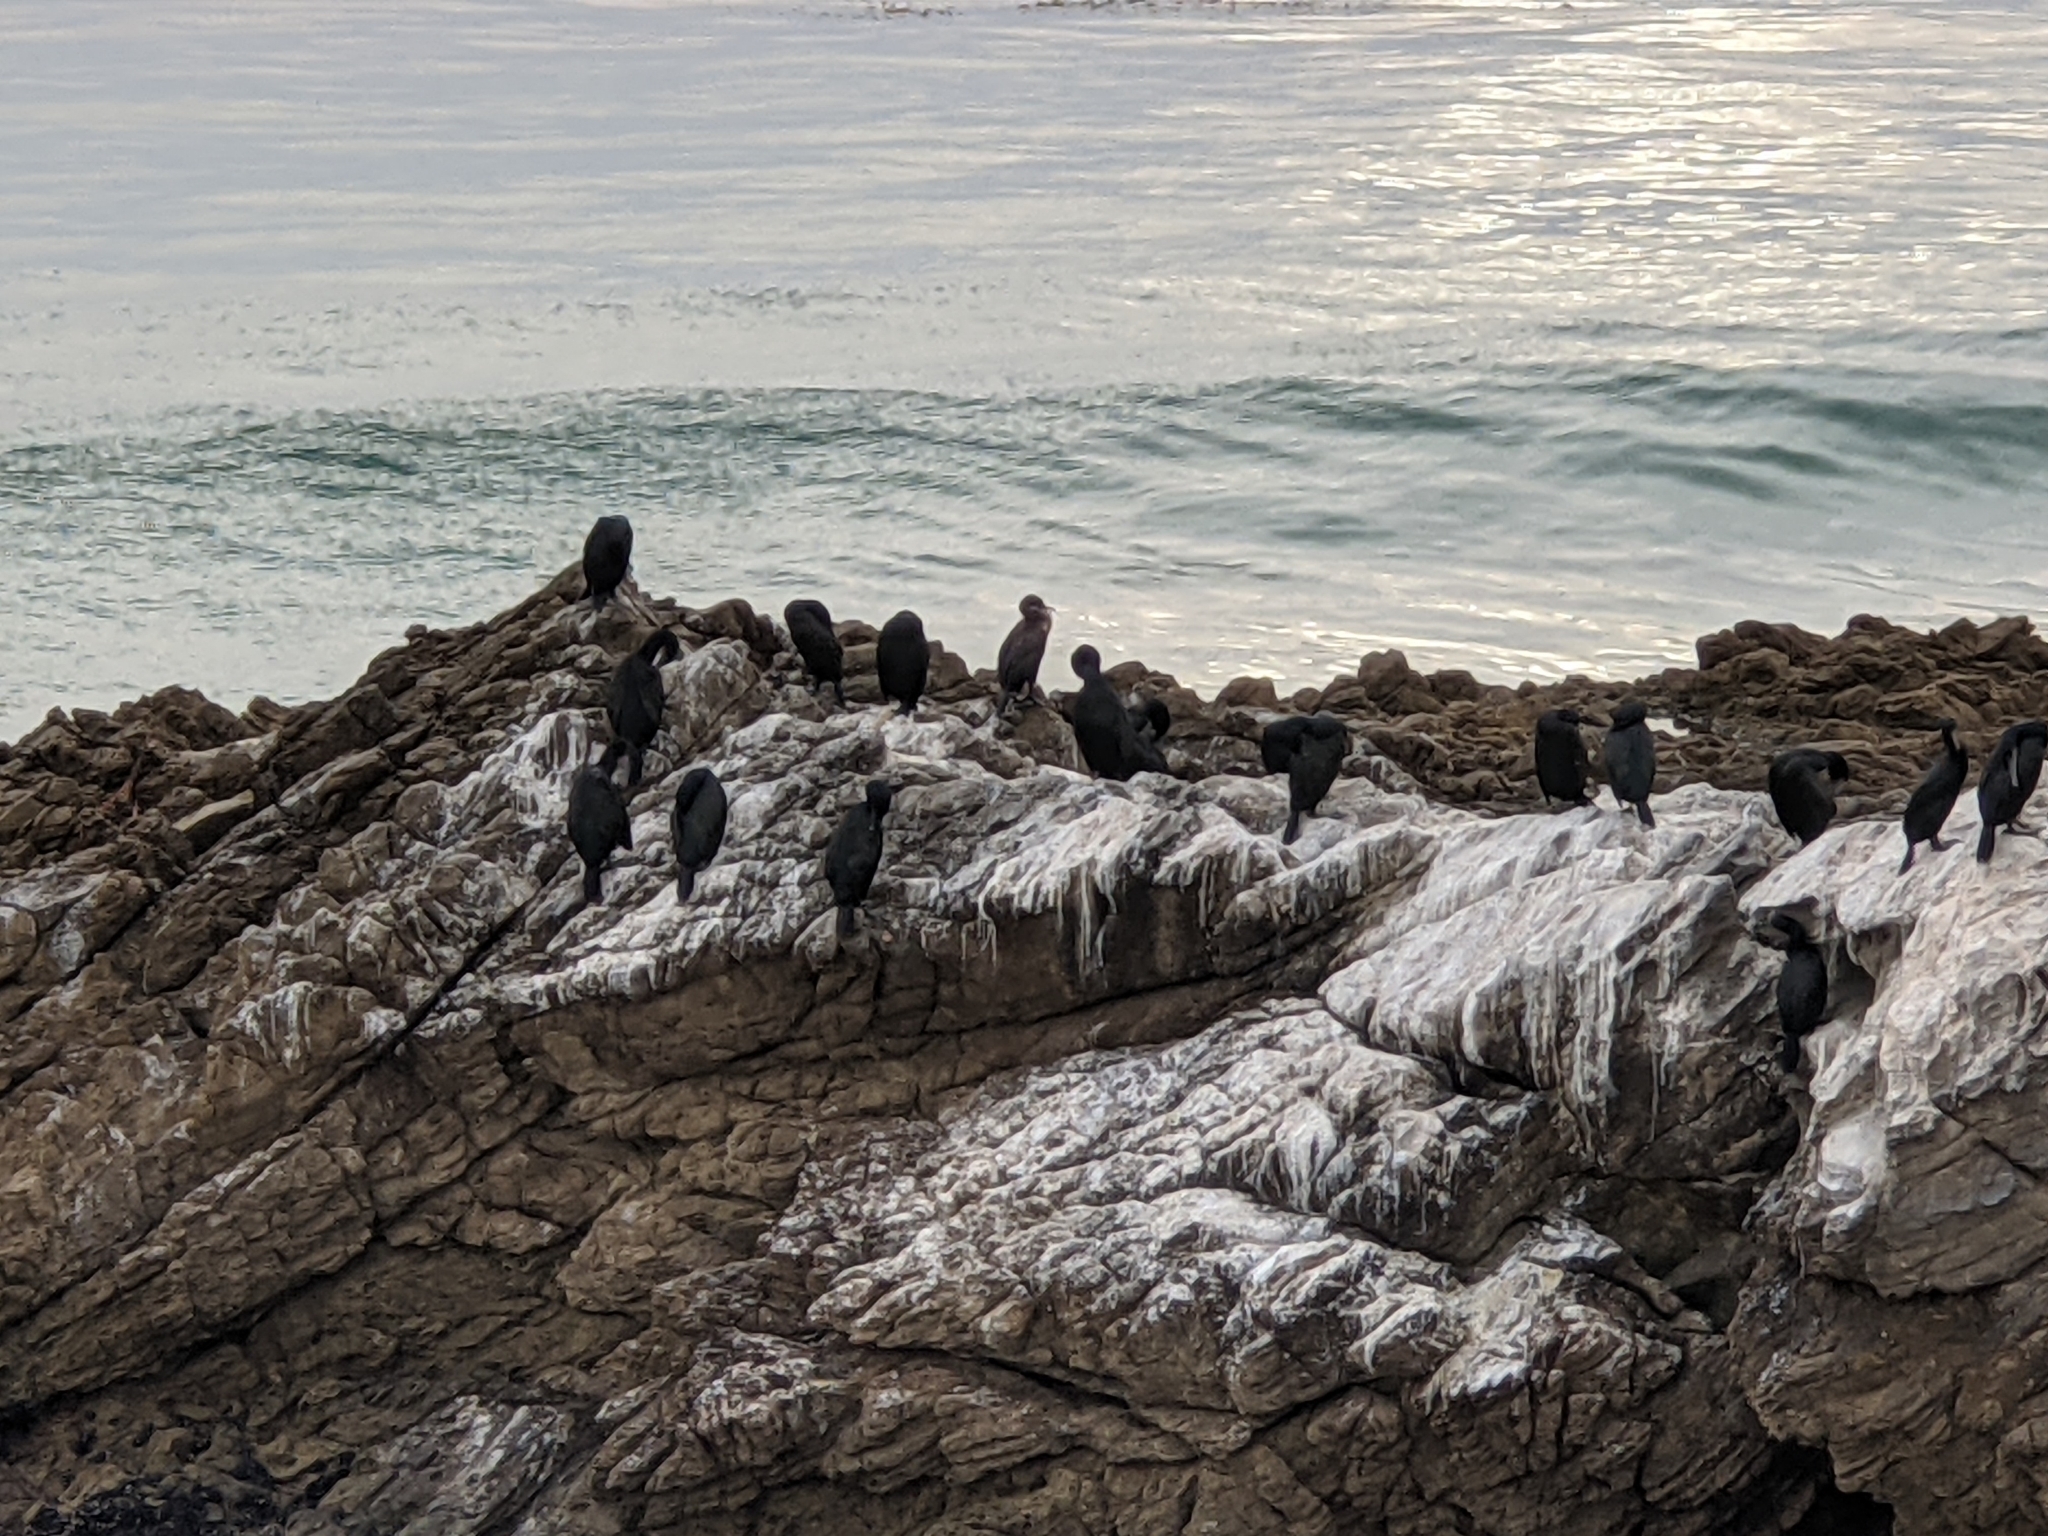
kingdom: Animalia
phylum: Chordata
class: Aves
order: Suliformes
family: Phalacrocoracidae
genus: Urile
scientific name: Urile penicillatus
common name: Brandt's cormorant
